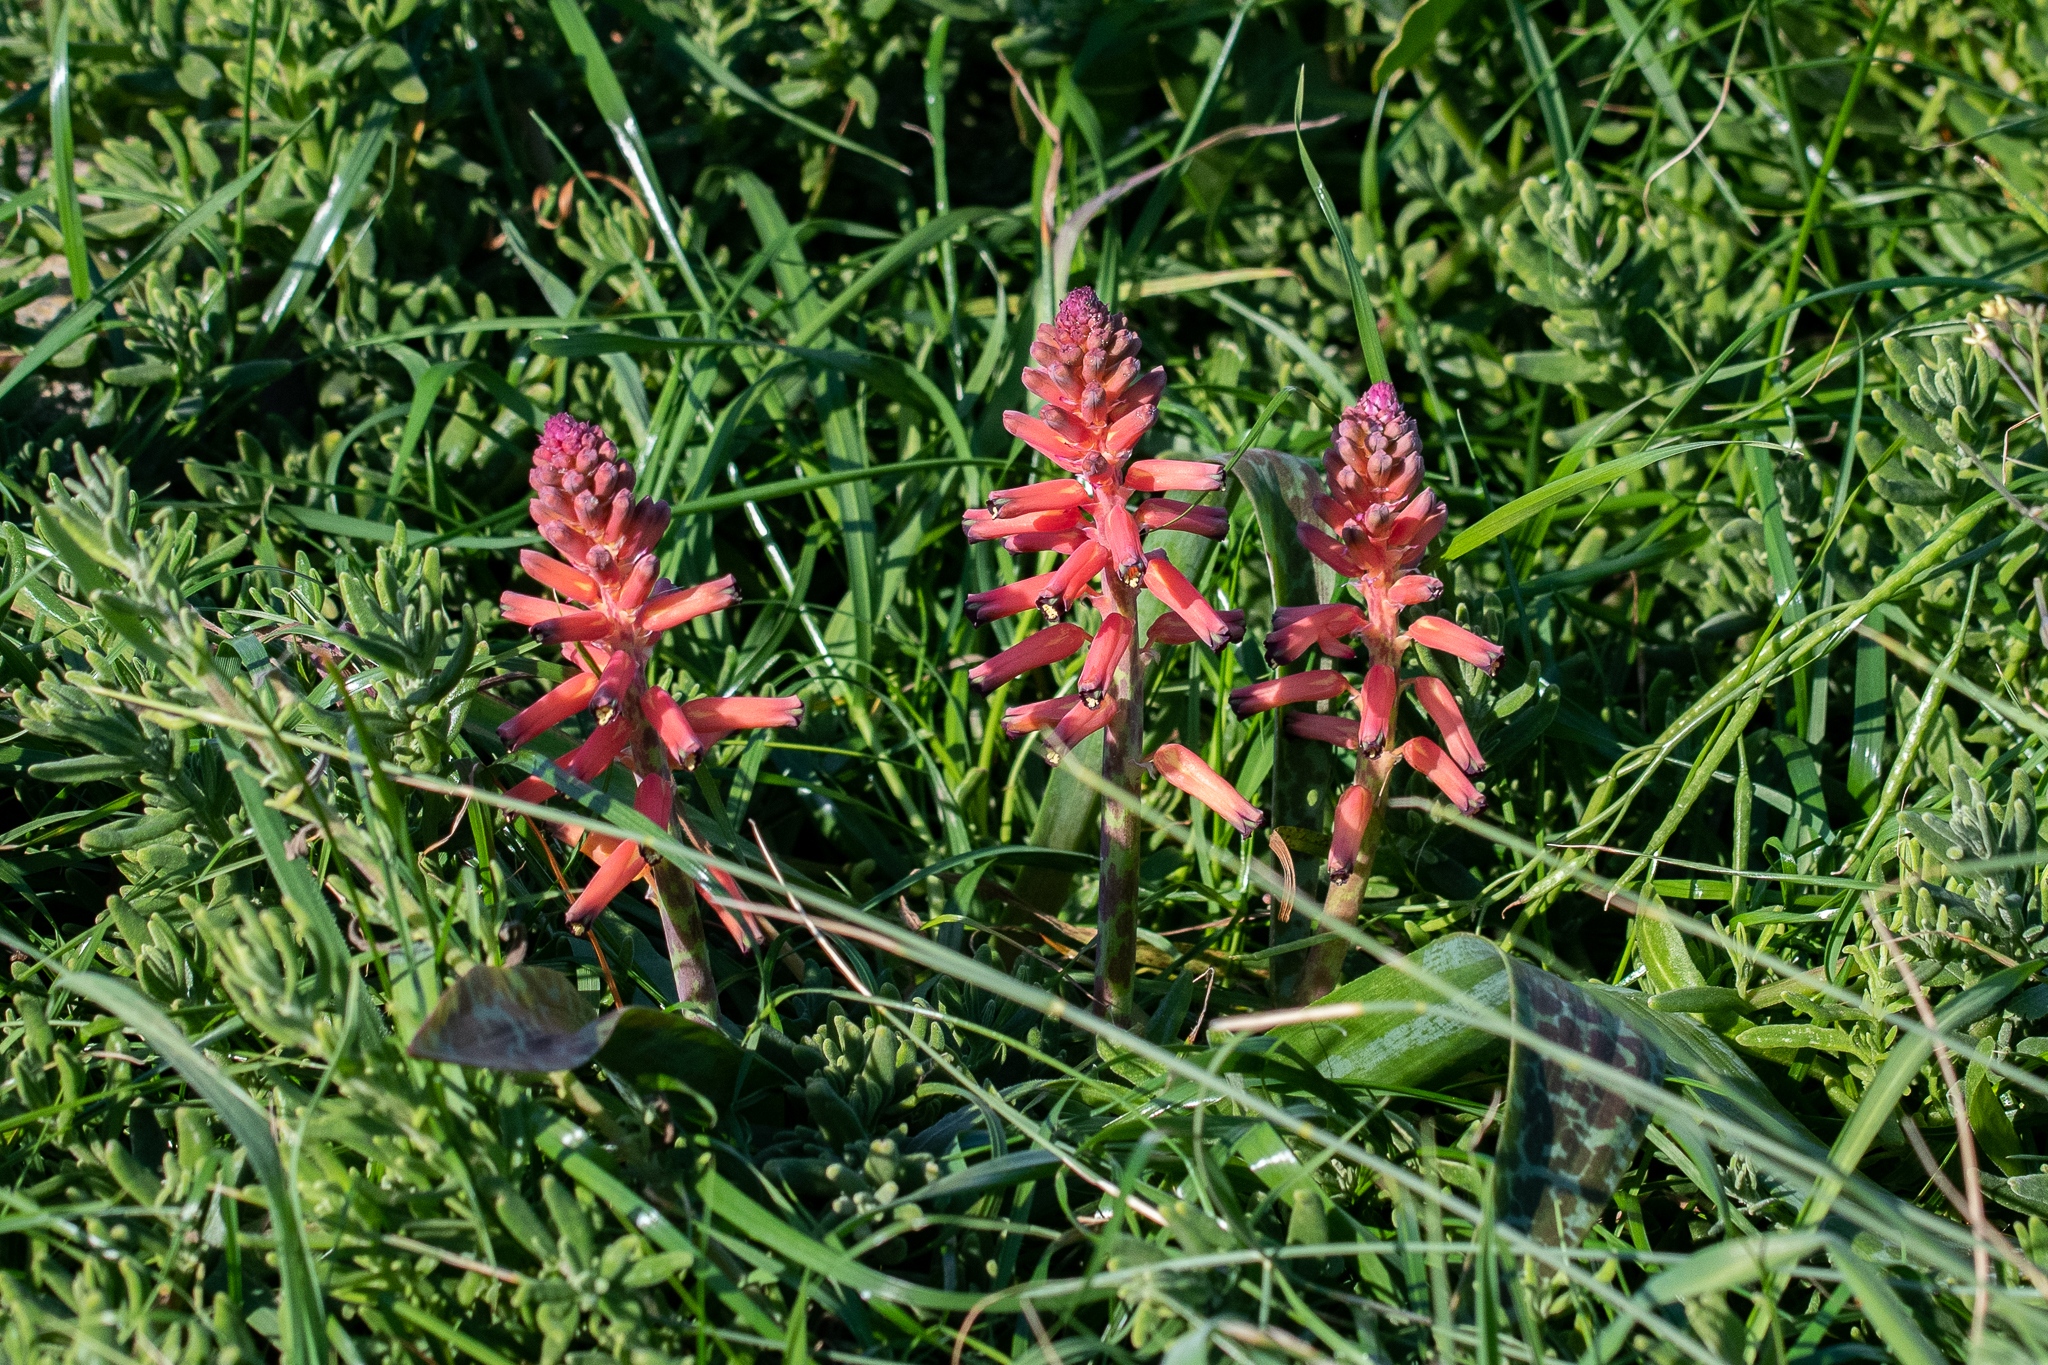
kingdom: Plantae
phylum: Tracheophyta
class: Liliopsida
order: Asparagales
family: Asparagaceae
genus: Lachenalia
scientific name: Lachenalia bulbifera
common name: Red lachenalia
